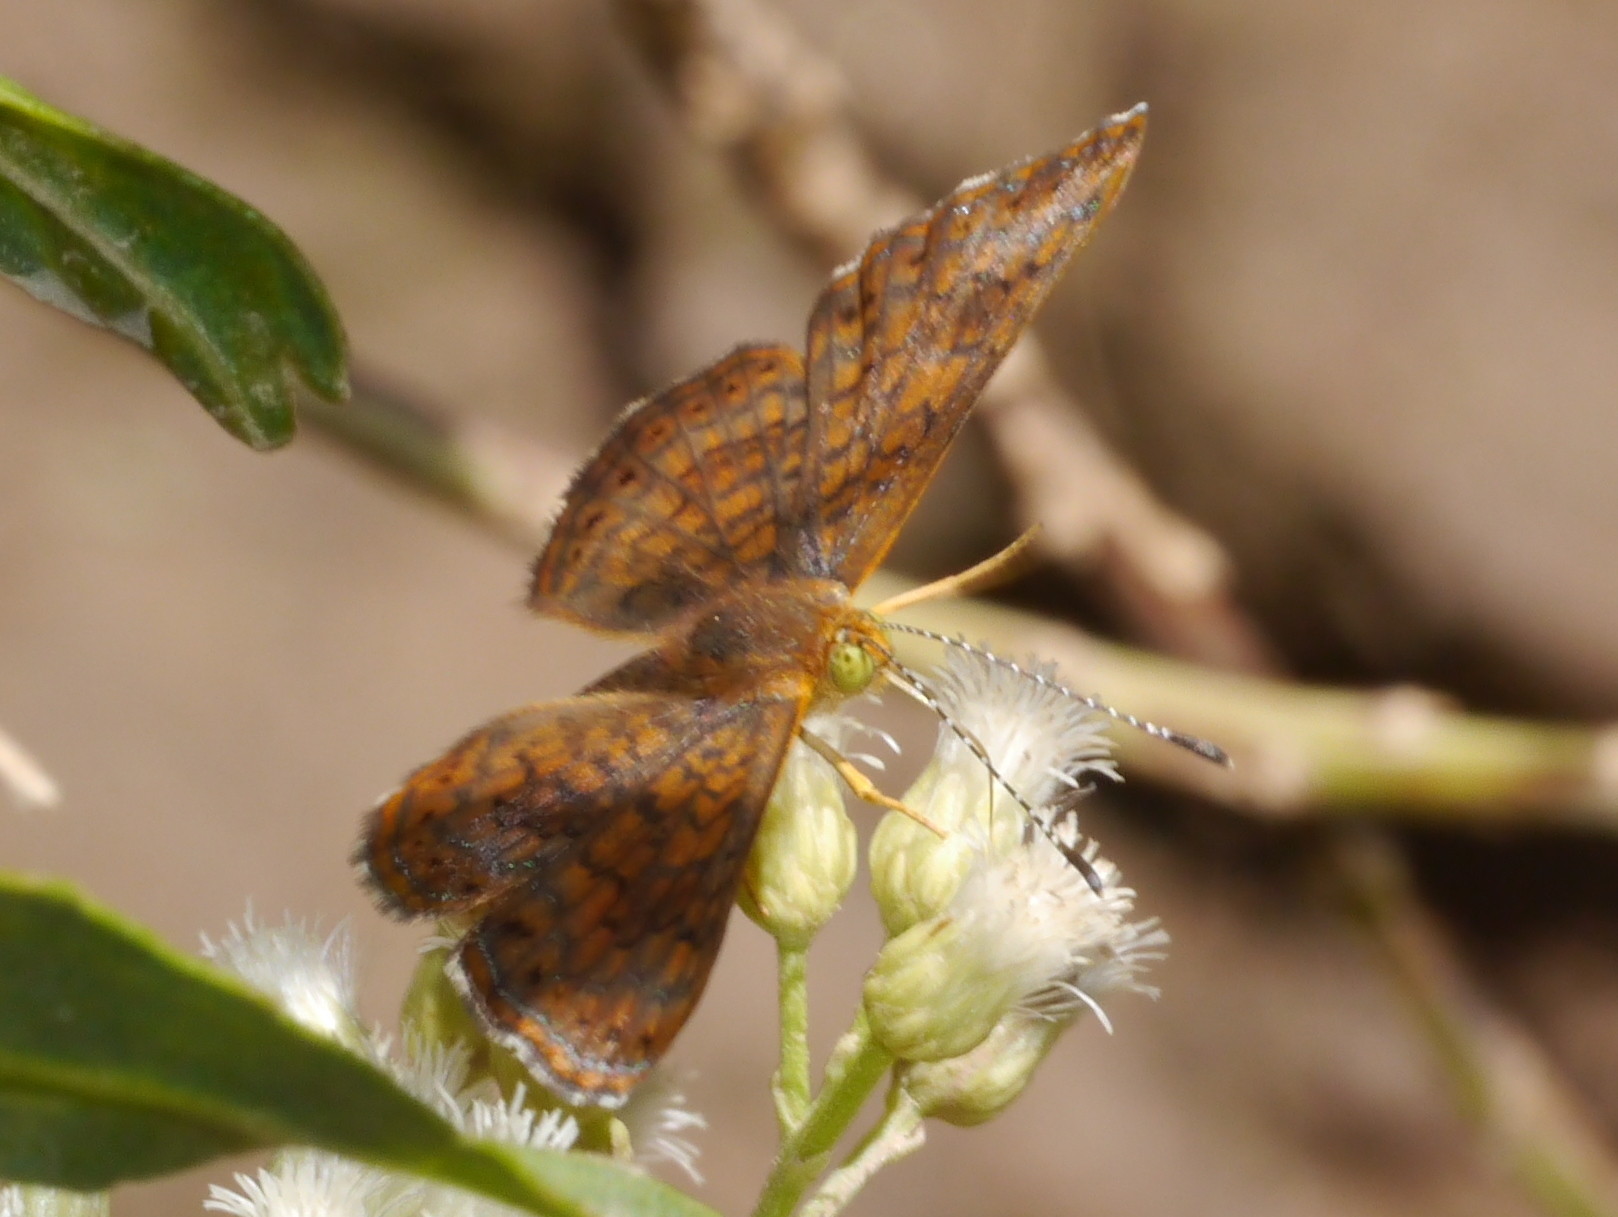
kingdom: Animalia
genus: Calephelis
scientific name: Calephelis nemesis
